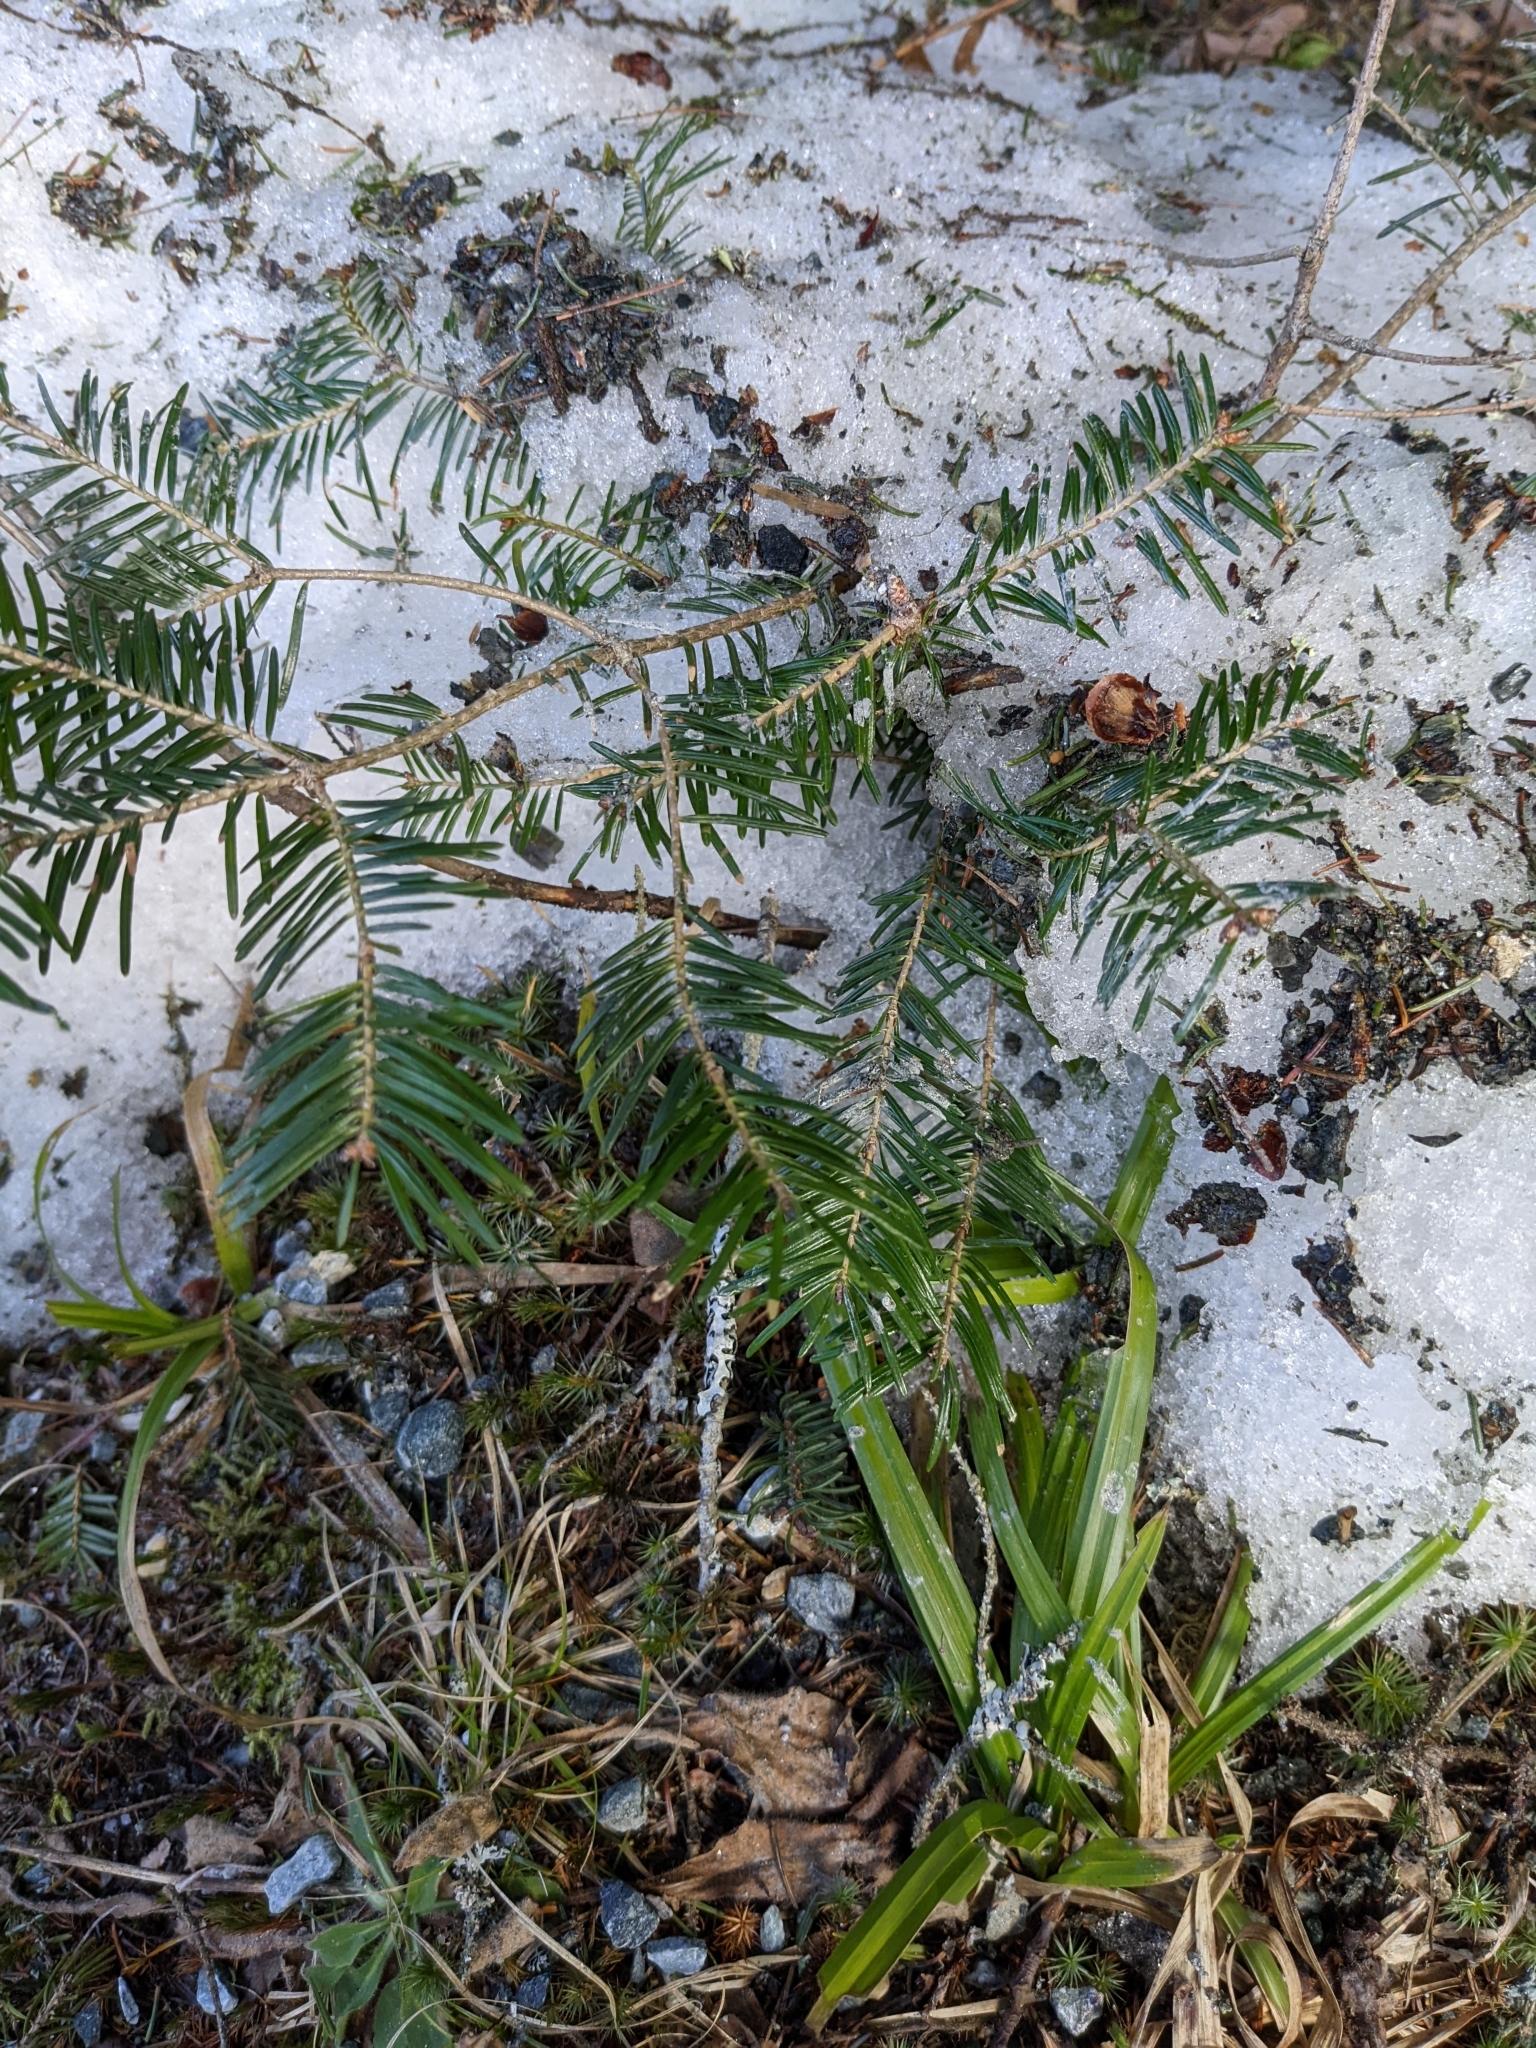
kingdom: Plantae
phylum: Tracheophyta
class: Pinopsida
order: Pinales
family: Pinaceae
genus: Abies
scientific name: Abies balsamea
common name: Balsam fir
